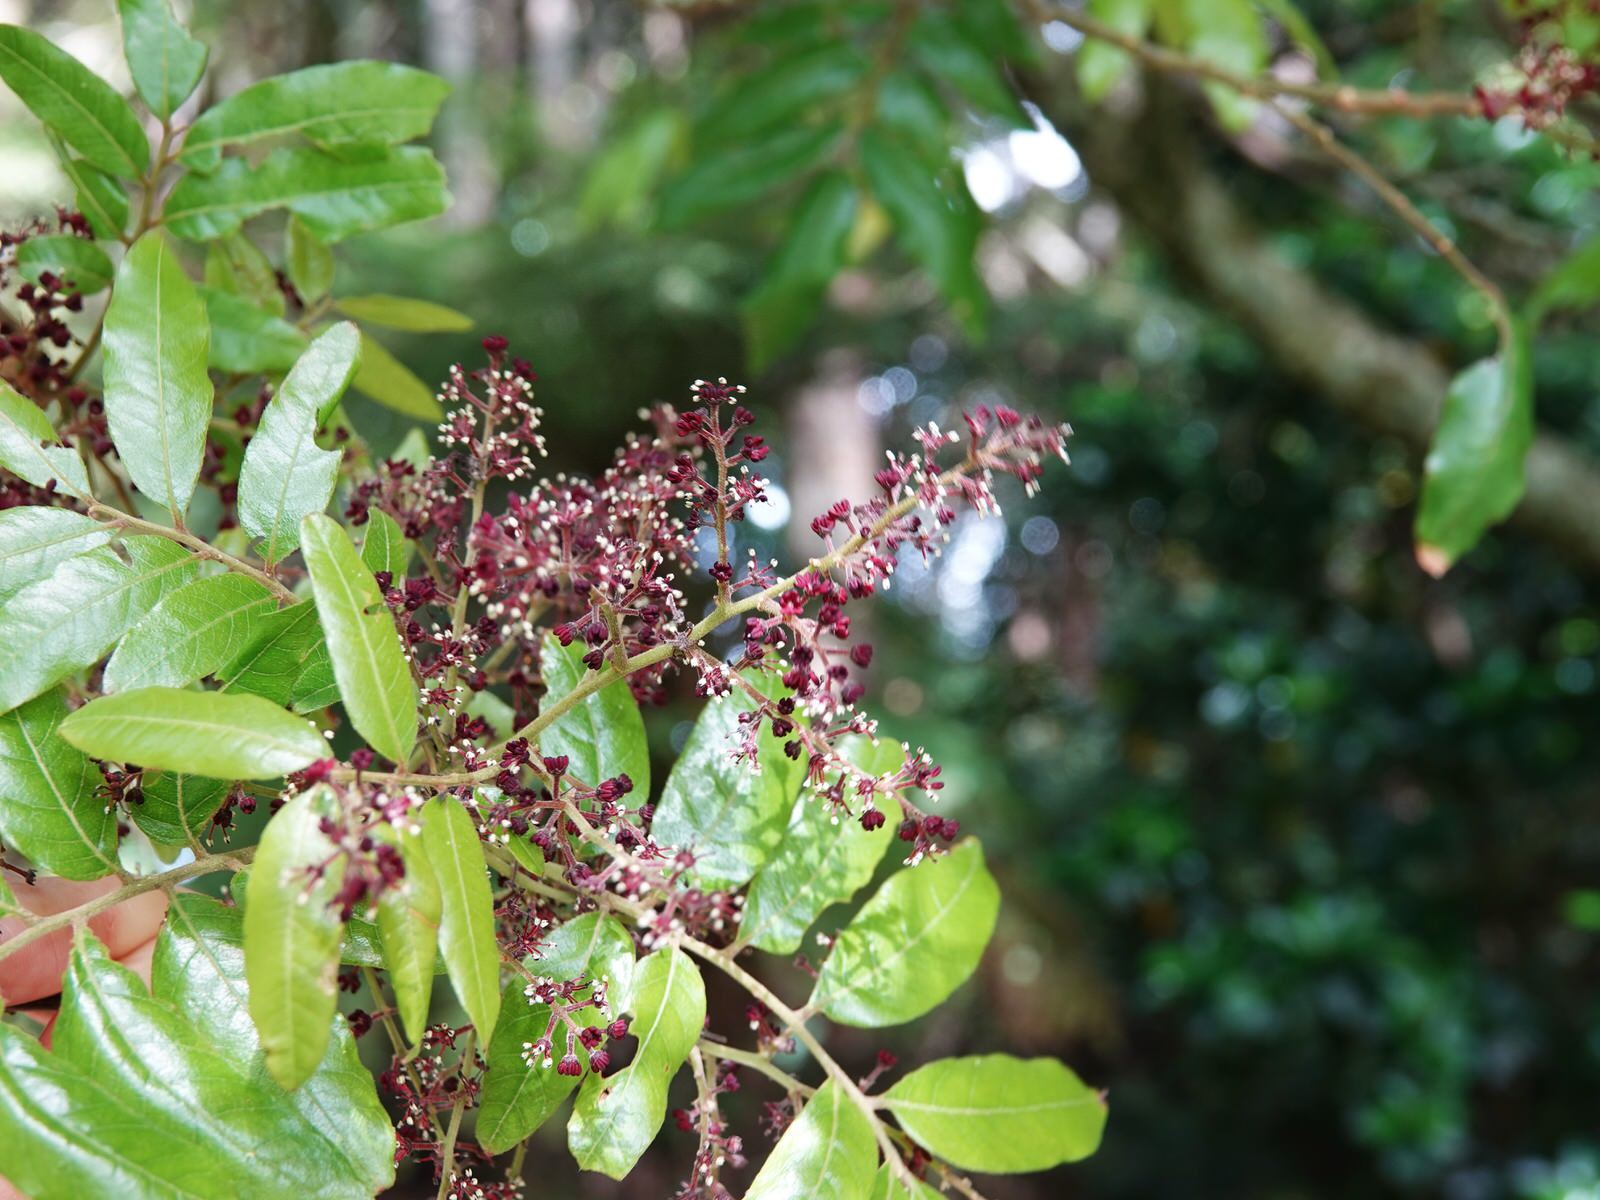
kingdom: Plantae
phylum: Tracheophyta
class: Magnoliopsida
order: Sapindales
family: Sapindaceae
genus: Alectryon
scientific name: Alectryon excelsus
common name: Three kings titoki
